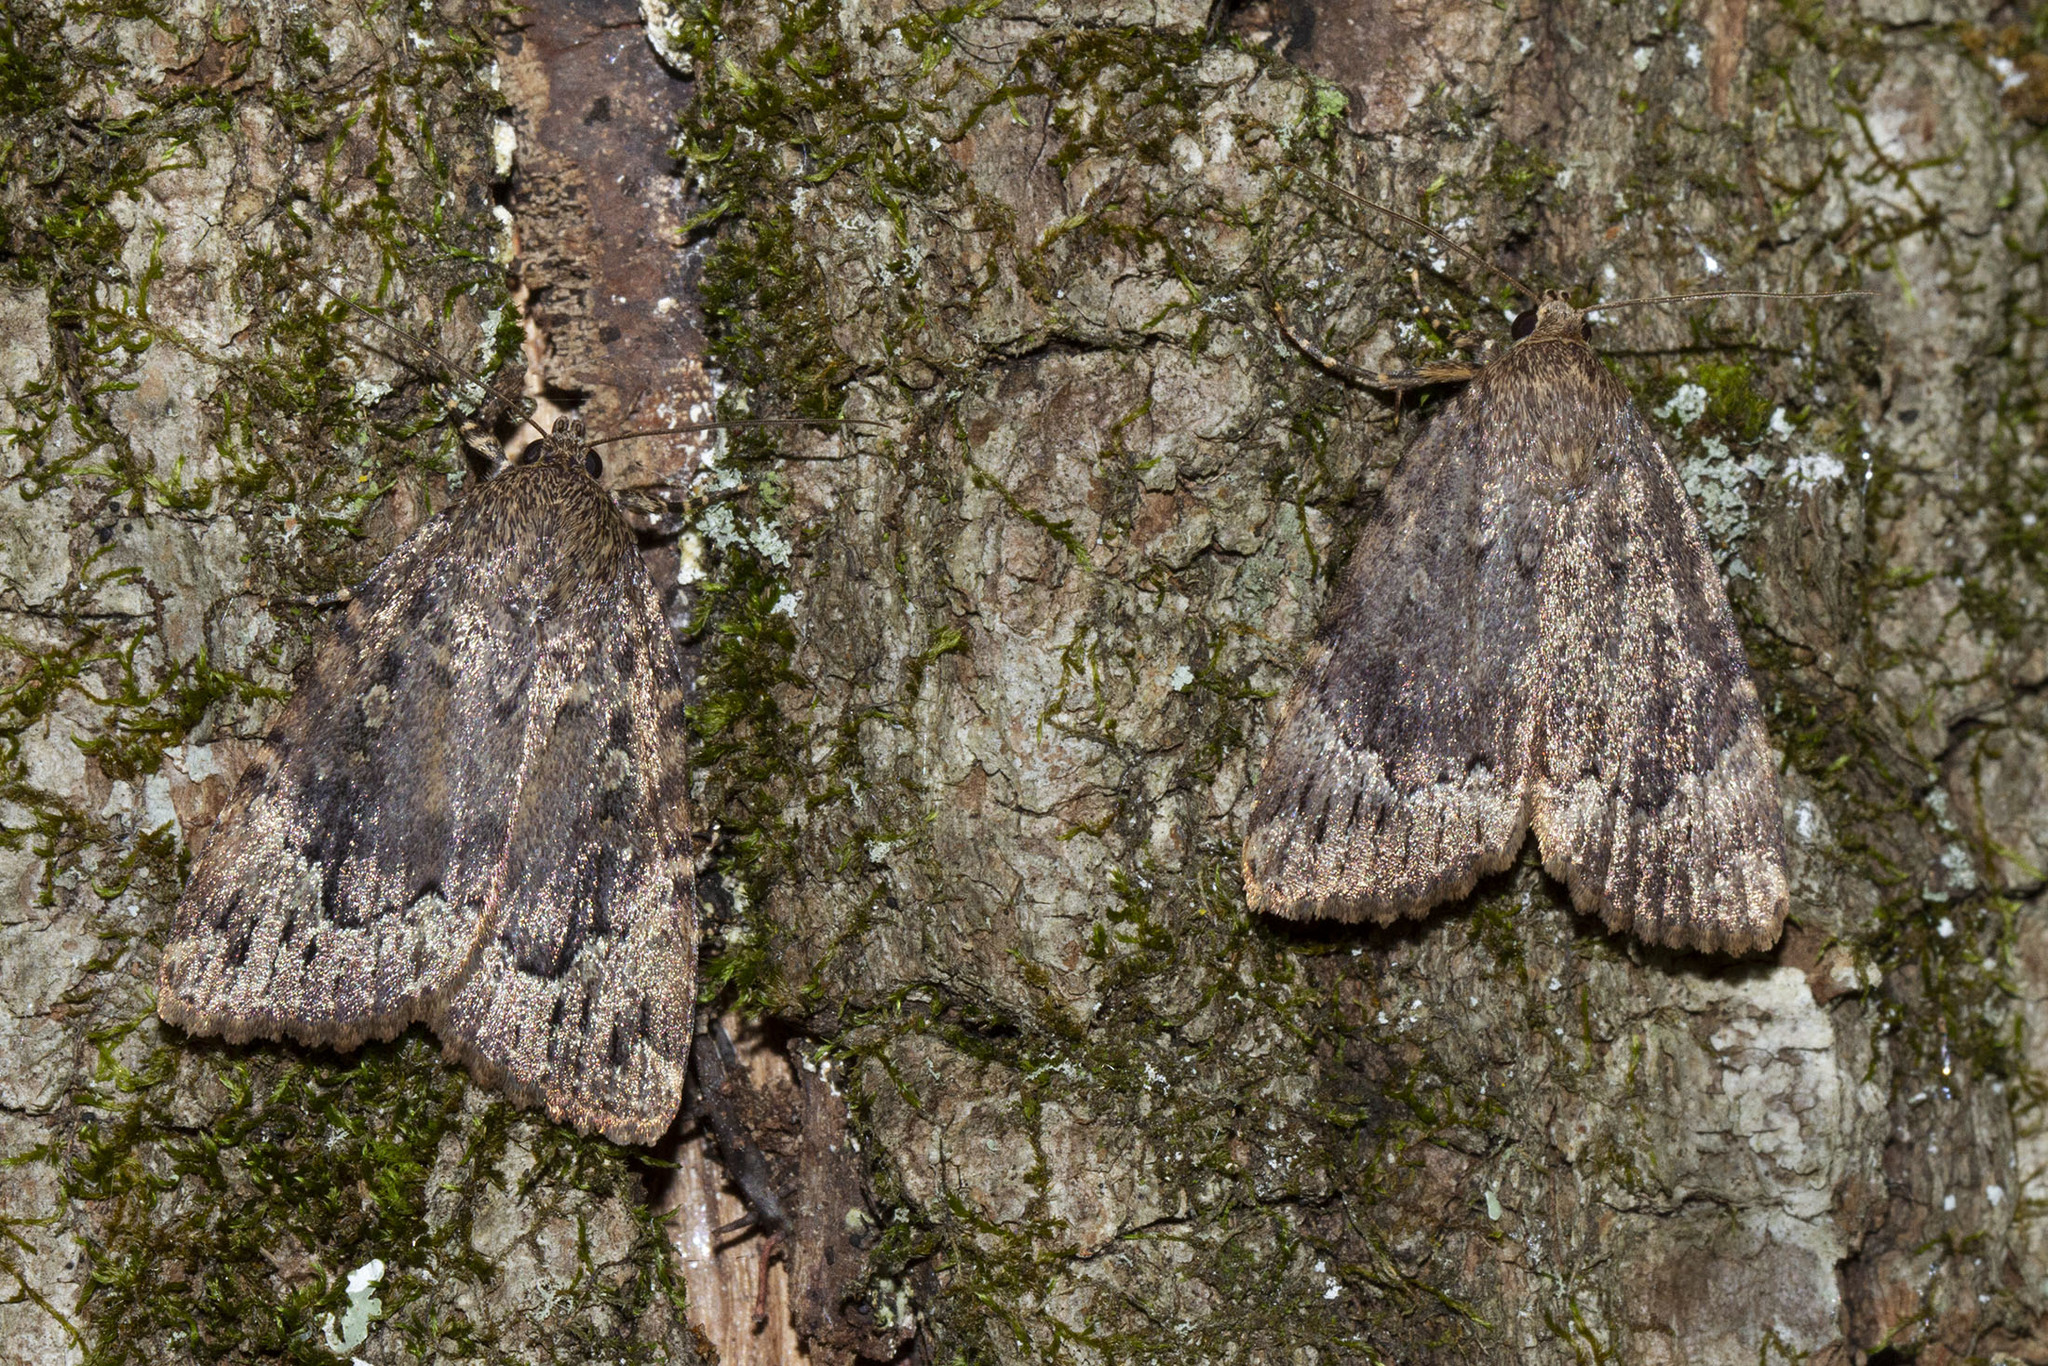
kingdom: Animalia
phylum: Arthropoda
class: Insecta
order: Lepidoptera
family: Noctuidae
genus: Amphipyra
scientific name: Amphipyra pyramidoides
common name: American copper underwing
